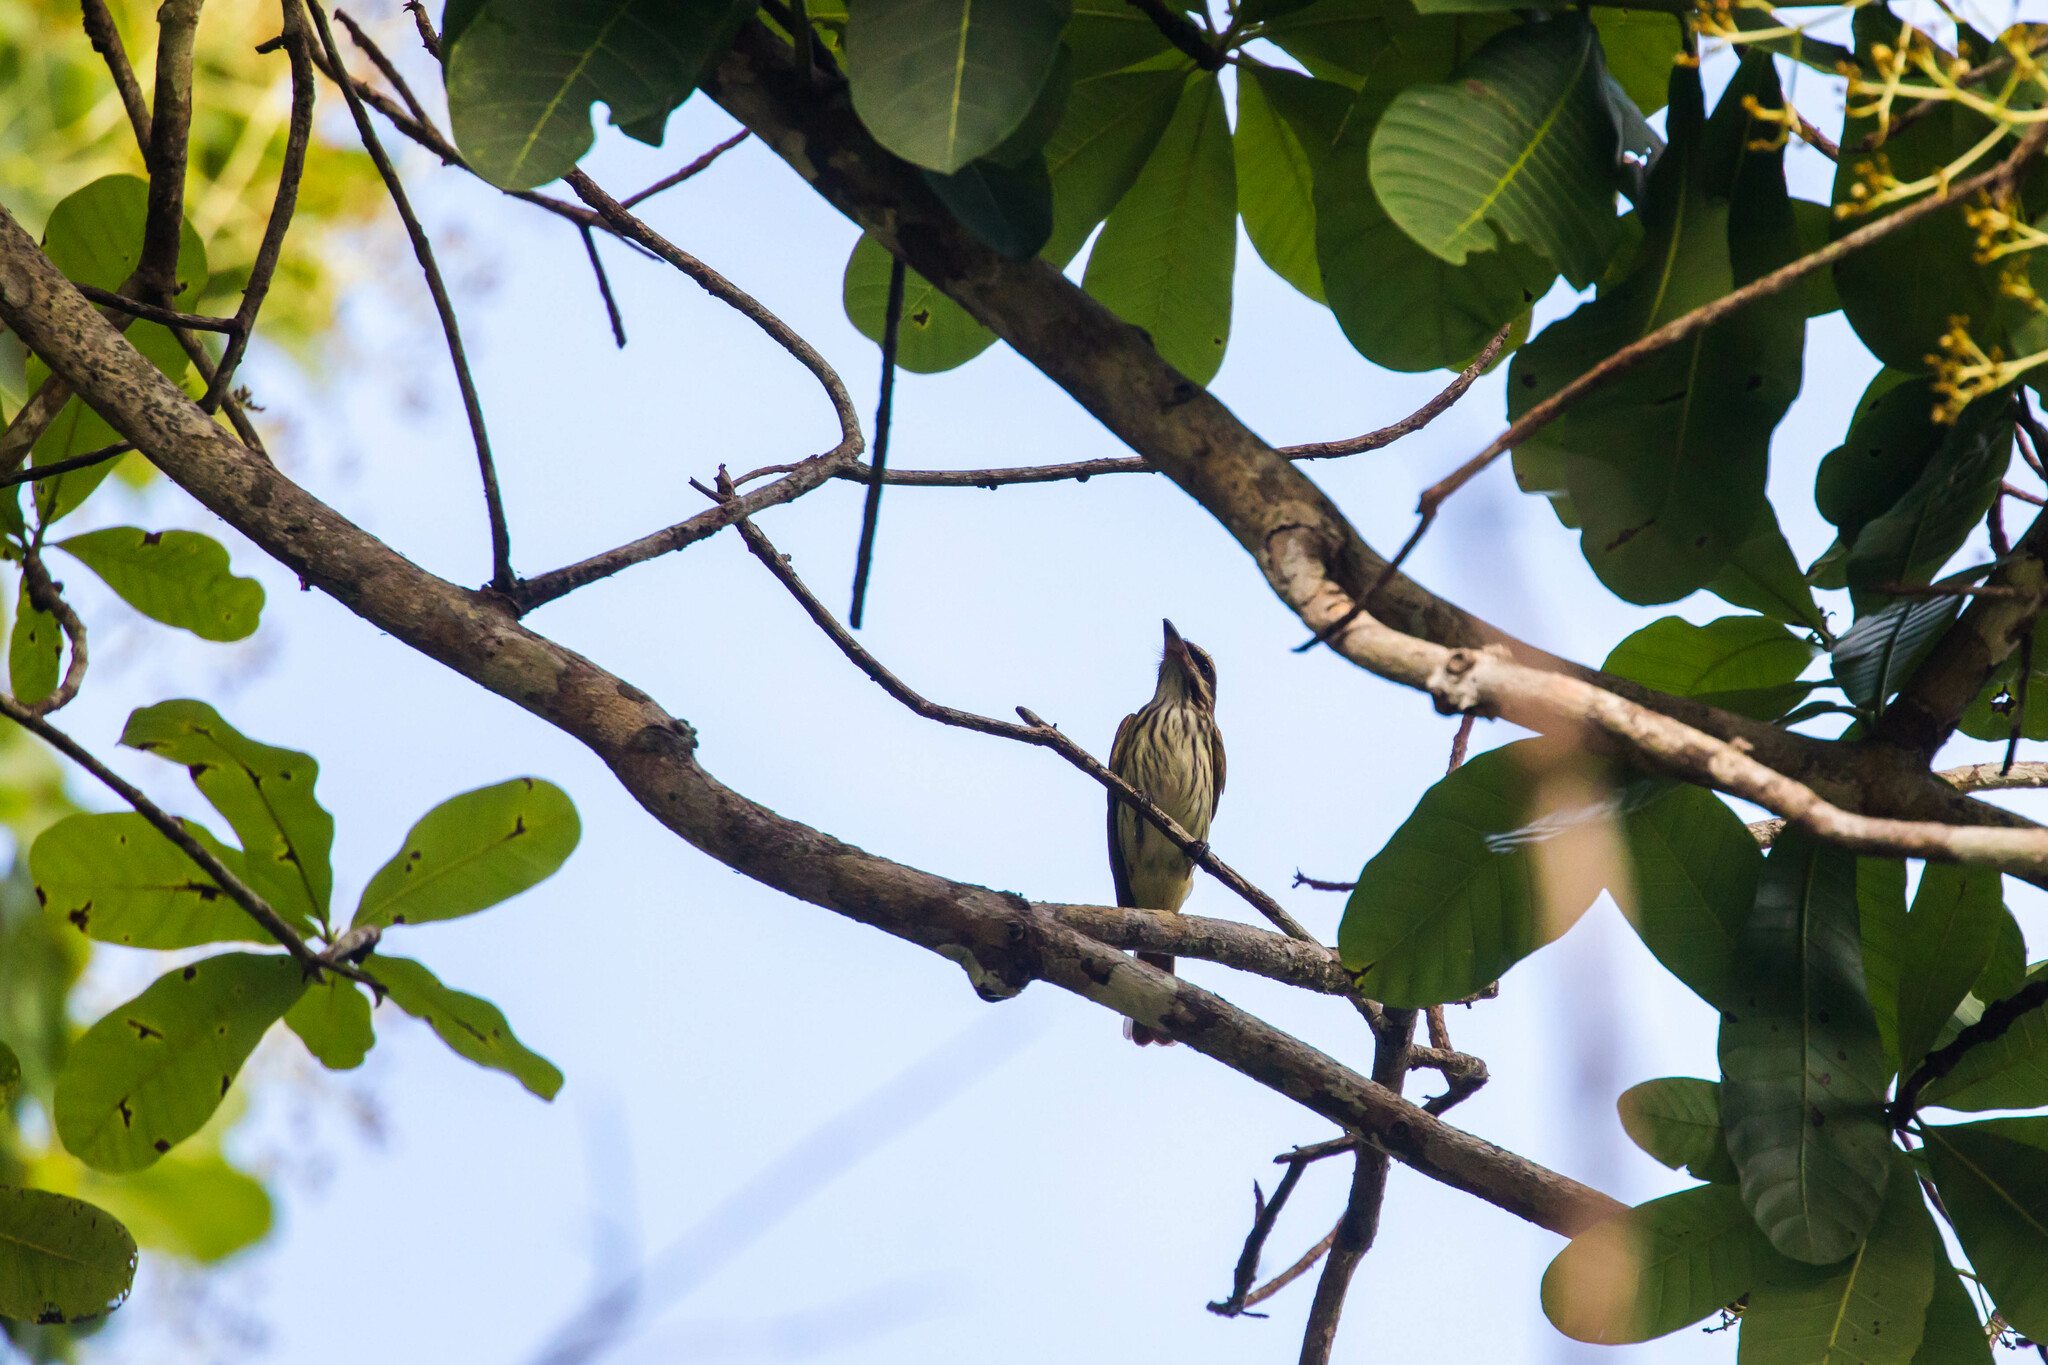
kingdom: Animalia
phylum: Chordata
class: Aves
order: Passeriformes
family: Tyrannidae
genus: Myiodynastes
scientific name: Myiodynastes maculatus
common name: Streaked flycatcher
